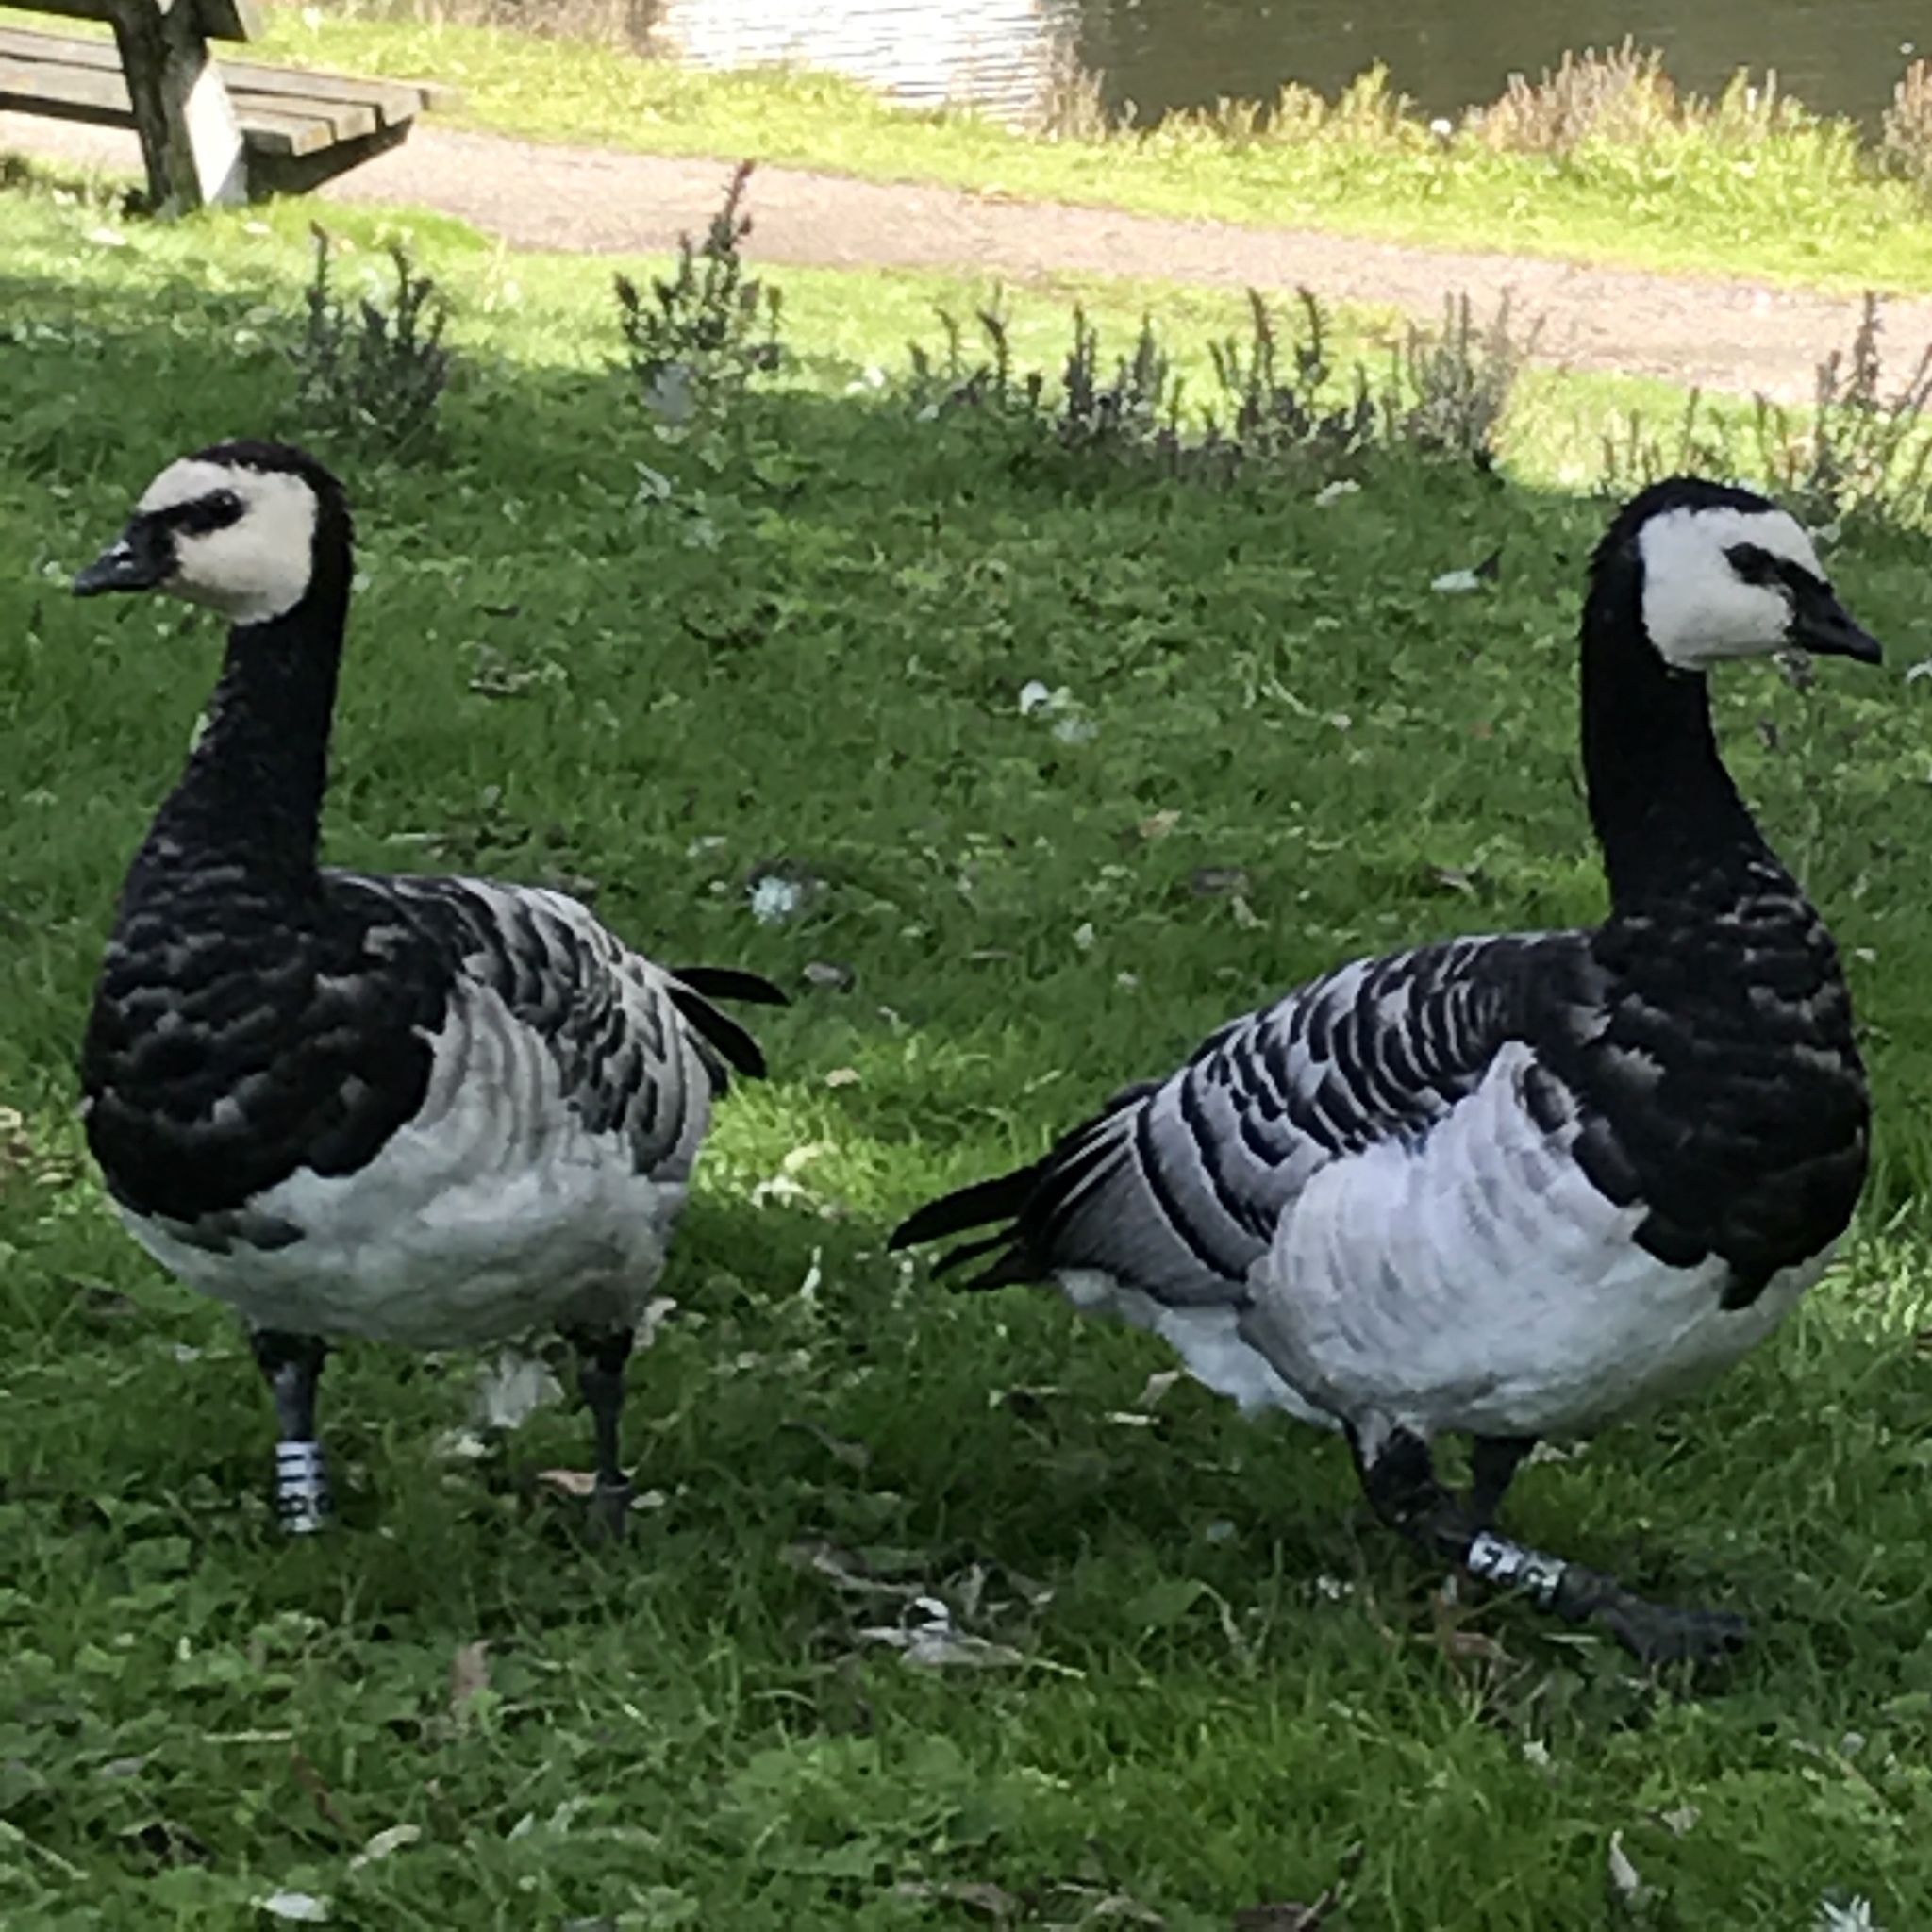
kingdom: Animalia
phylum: Chordata
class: Aves
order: Anseriformes
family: Anatidae
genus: Branta
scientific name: Branta leucopsis
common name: Barnacle goose
